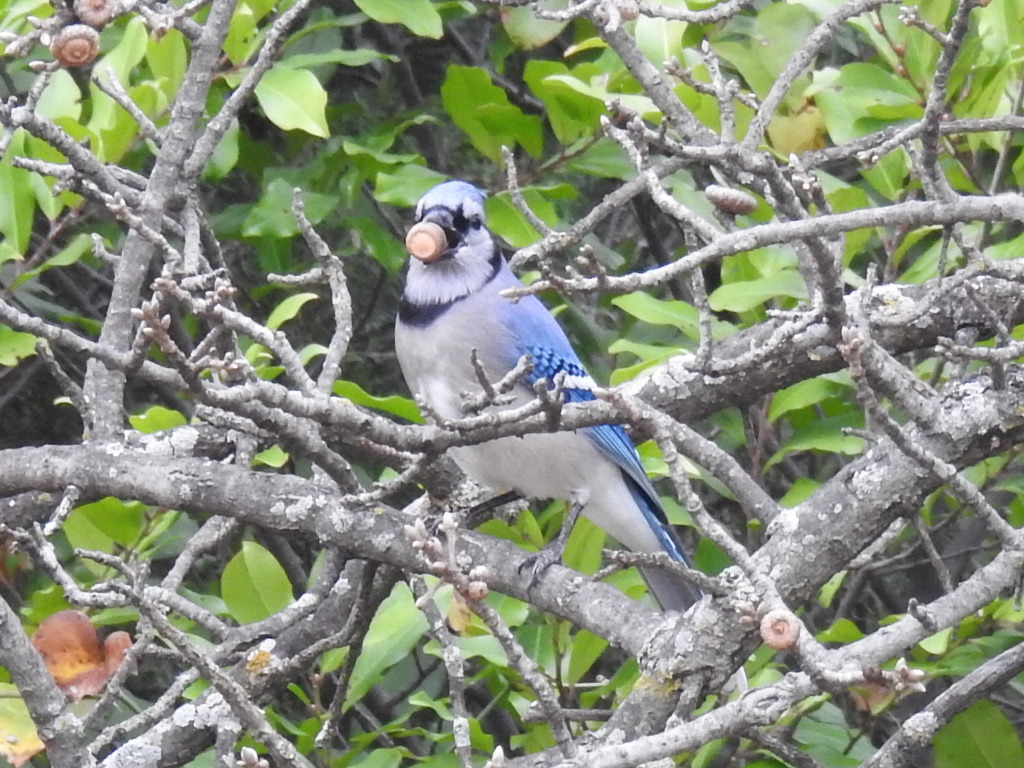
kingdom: Animalia
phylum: Chordata
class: Aves
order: Passeriformes
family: Corvidae
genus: Cyanocitta
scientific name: Cyanocitta cristata
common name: Blue jay
